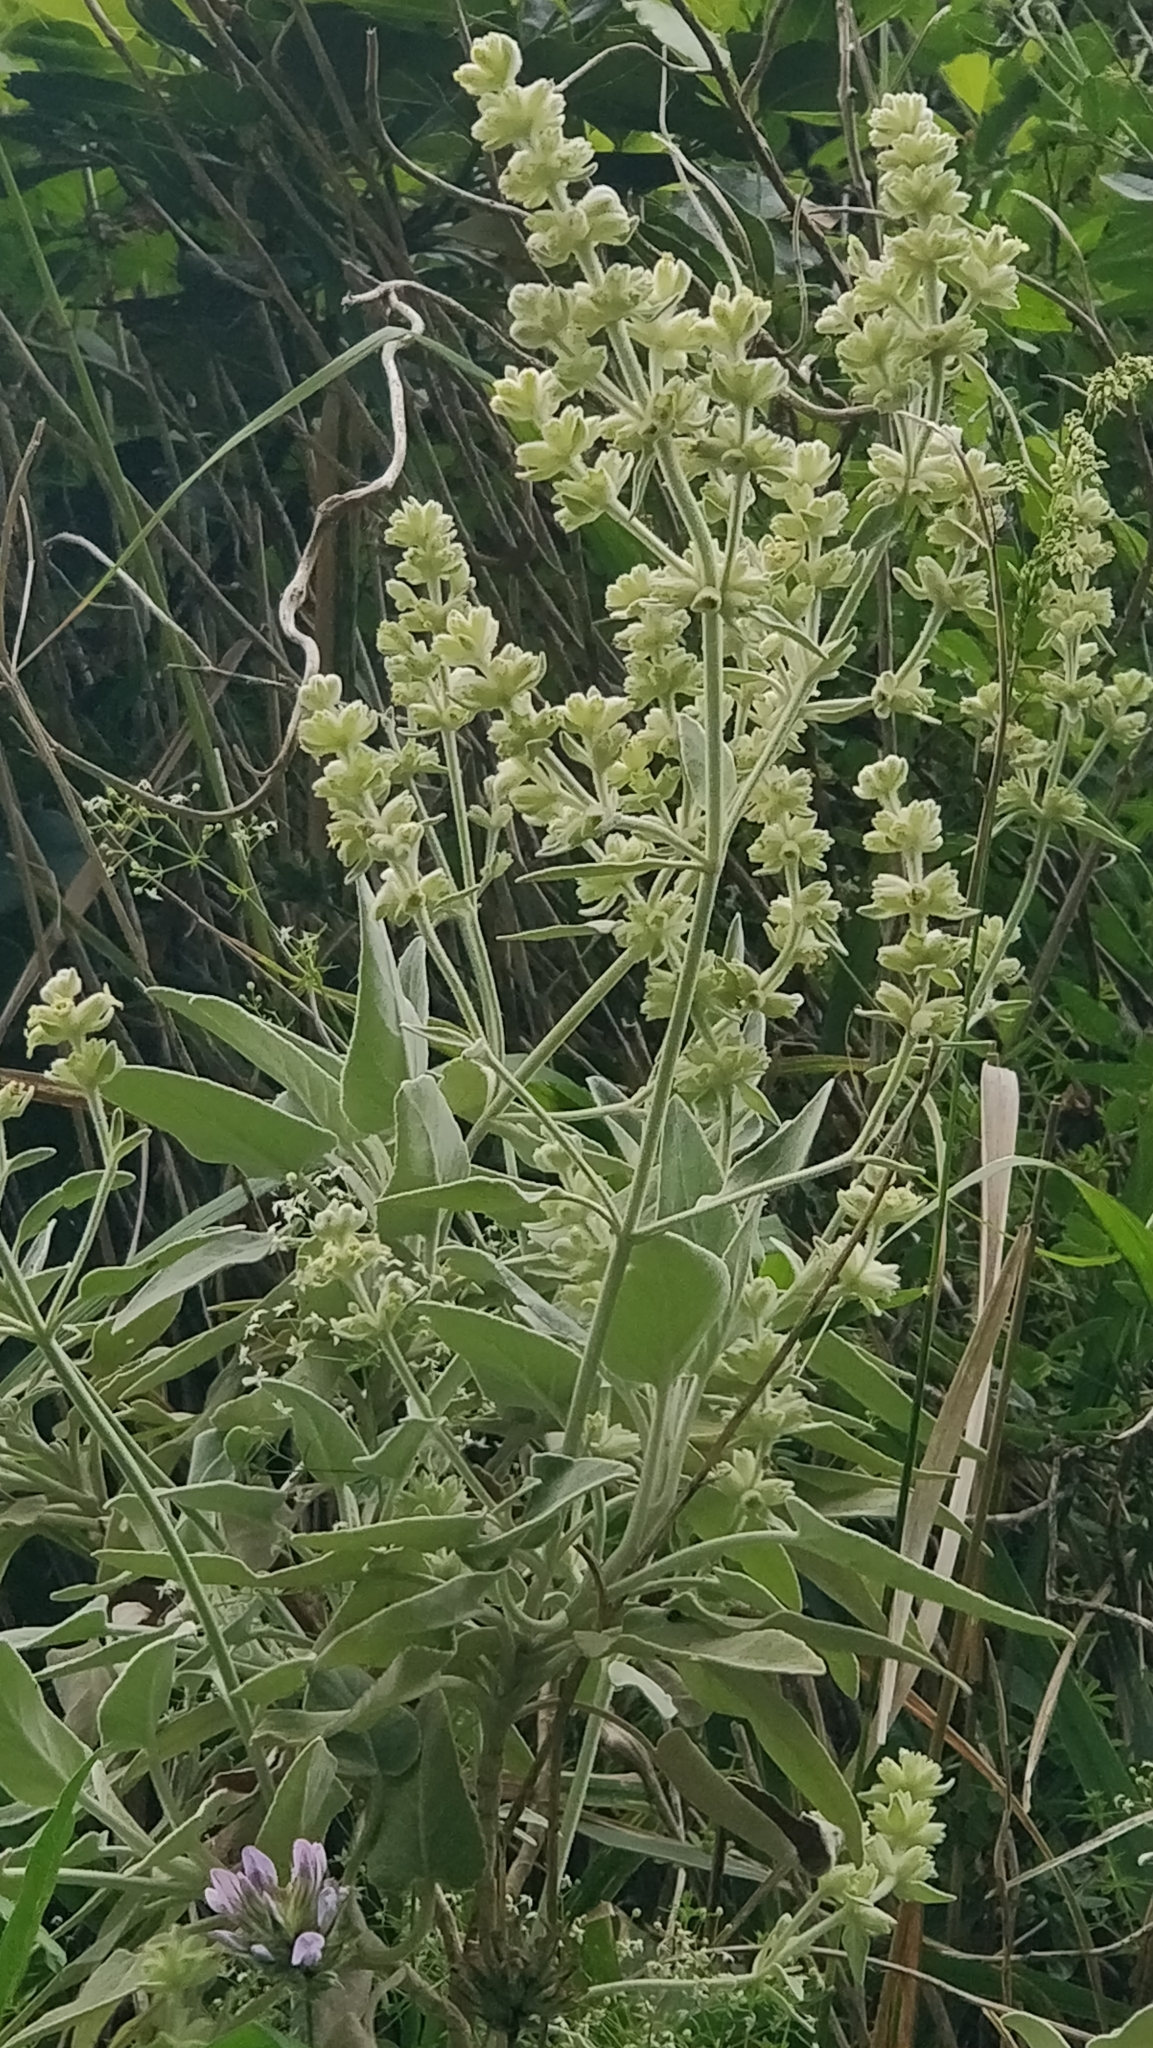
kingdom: Plantae
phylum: Tracheophyta
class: Magnoliopsida
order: Lamiales
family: Lamiaceae
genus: Sideritis
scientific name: Sideritis candicans
